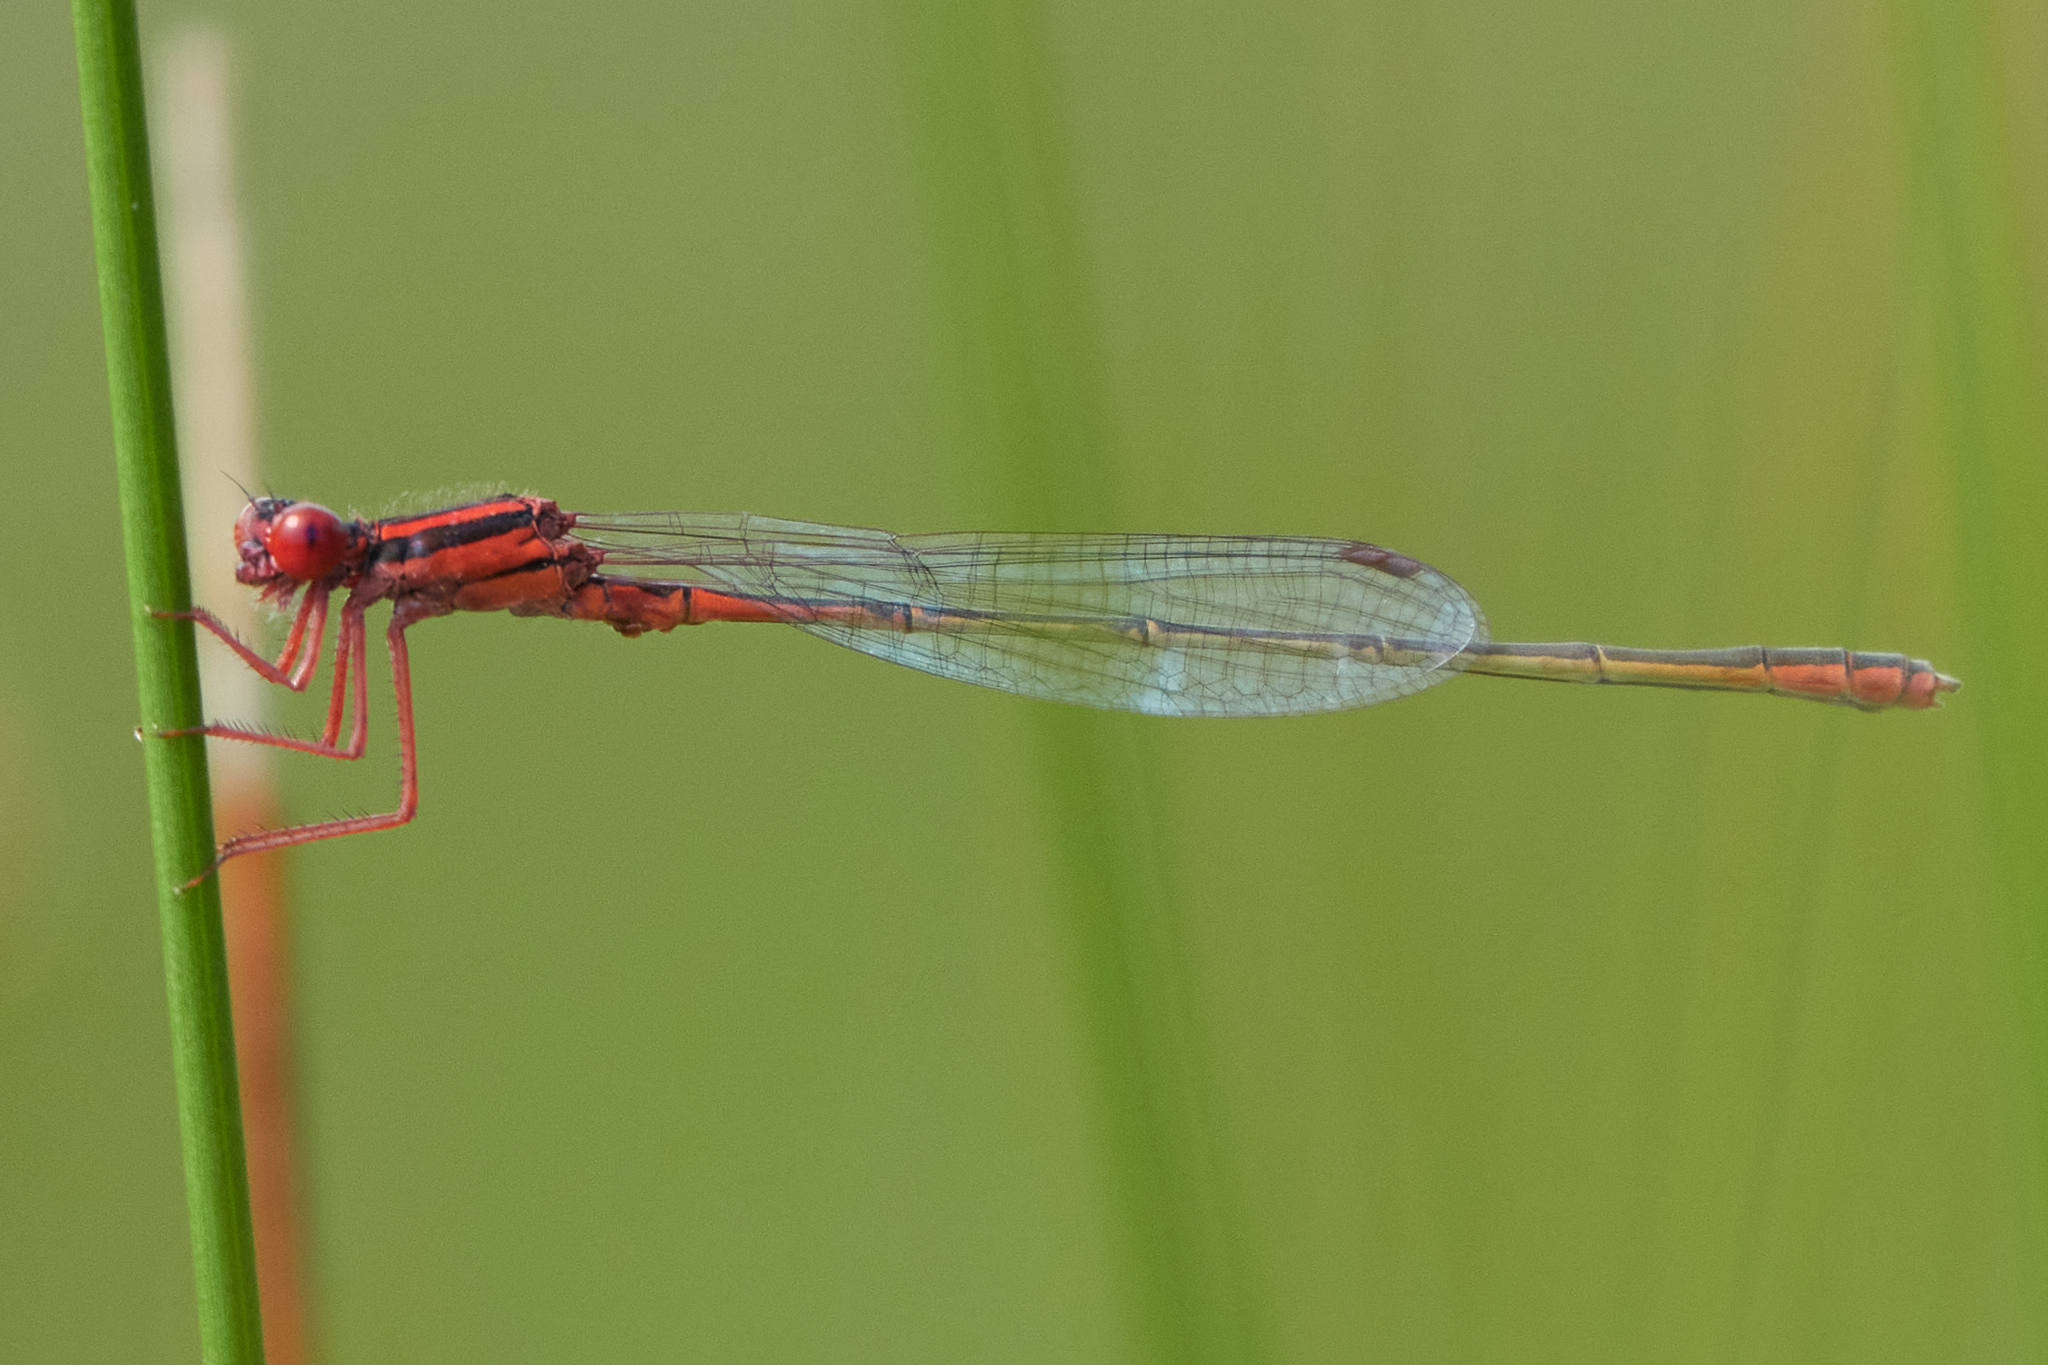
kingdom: Animalia
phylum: Arthropoda
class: Insecta
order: Odonata
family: Coenagrionidae
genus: Enallagma
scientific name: Enallagma pictum
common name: Scarlet bluet
